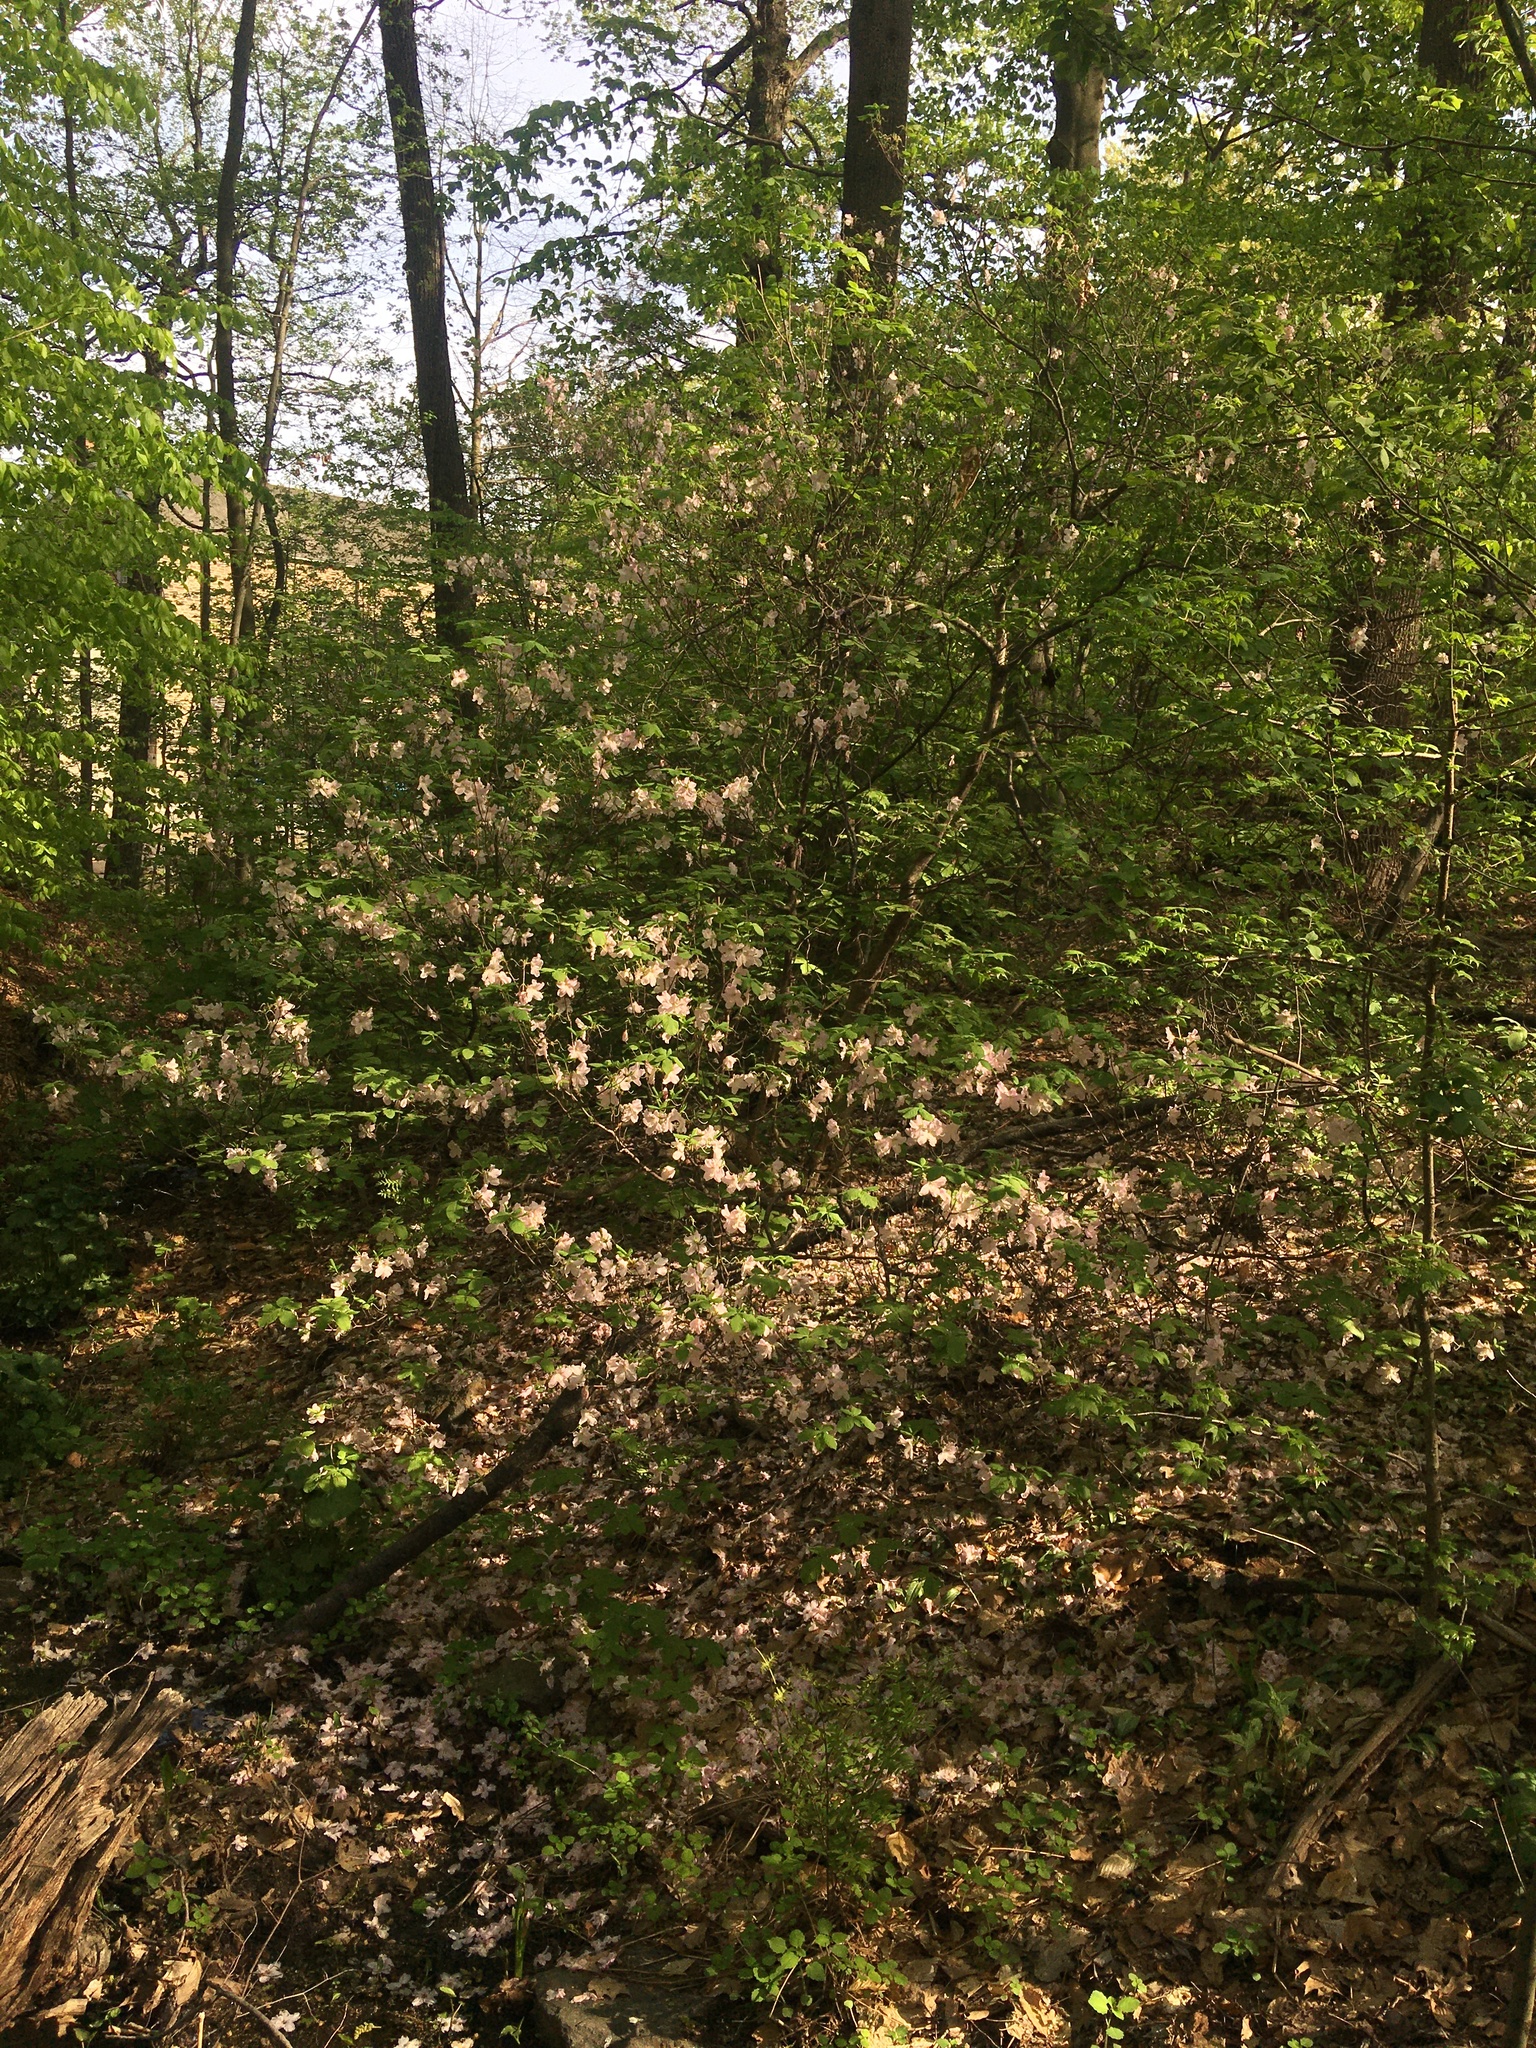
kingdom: Plantae
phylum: Tracheophyta
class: Magnoliopsida
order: Ericales
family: Ericaceae
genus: Rhododendron
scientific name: Rhododendron schlippenbachii
